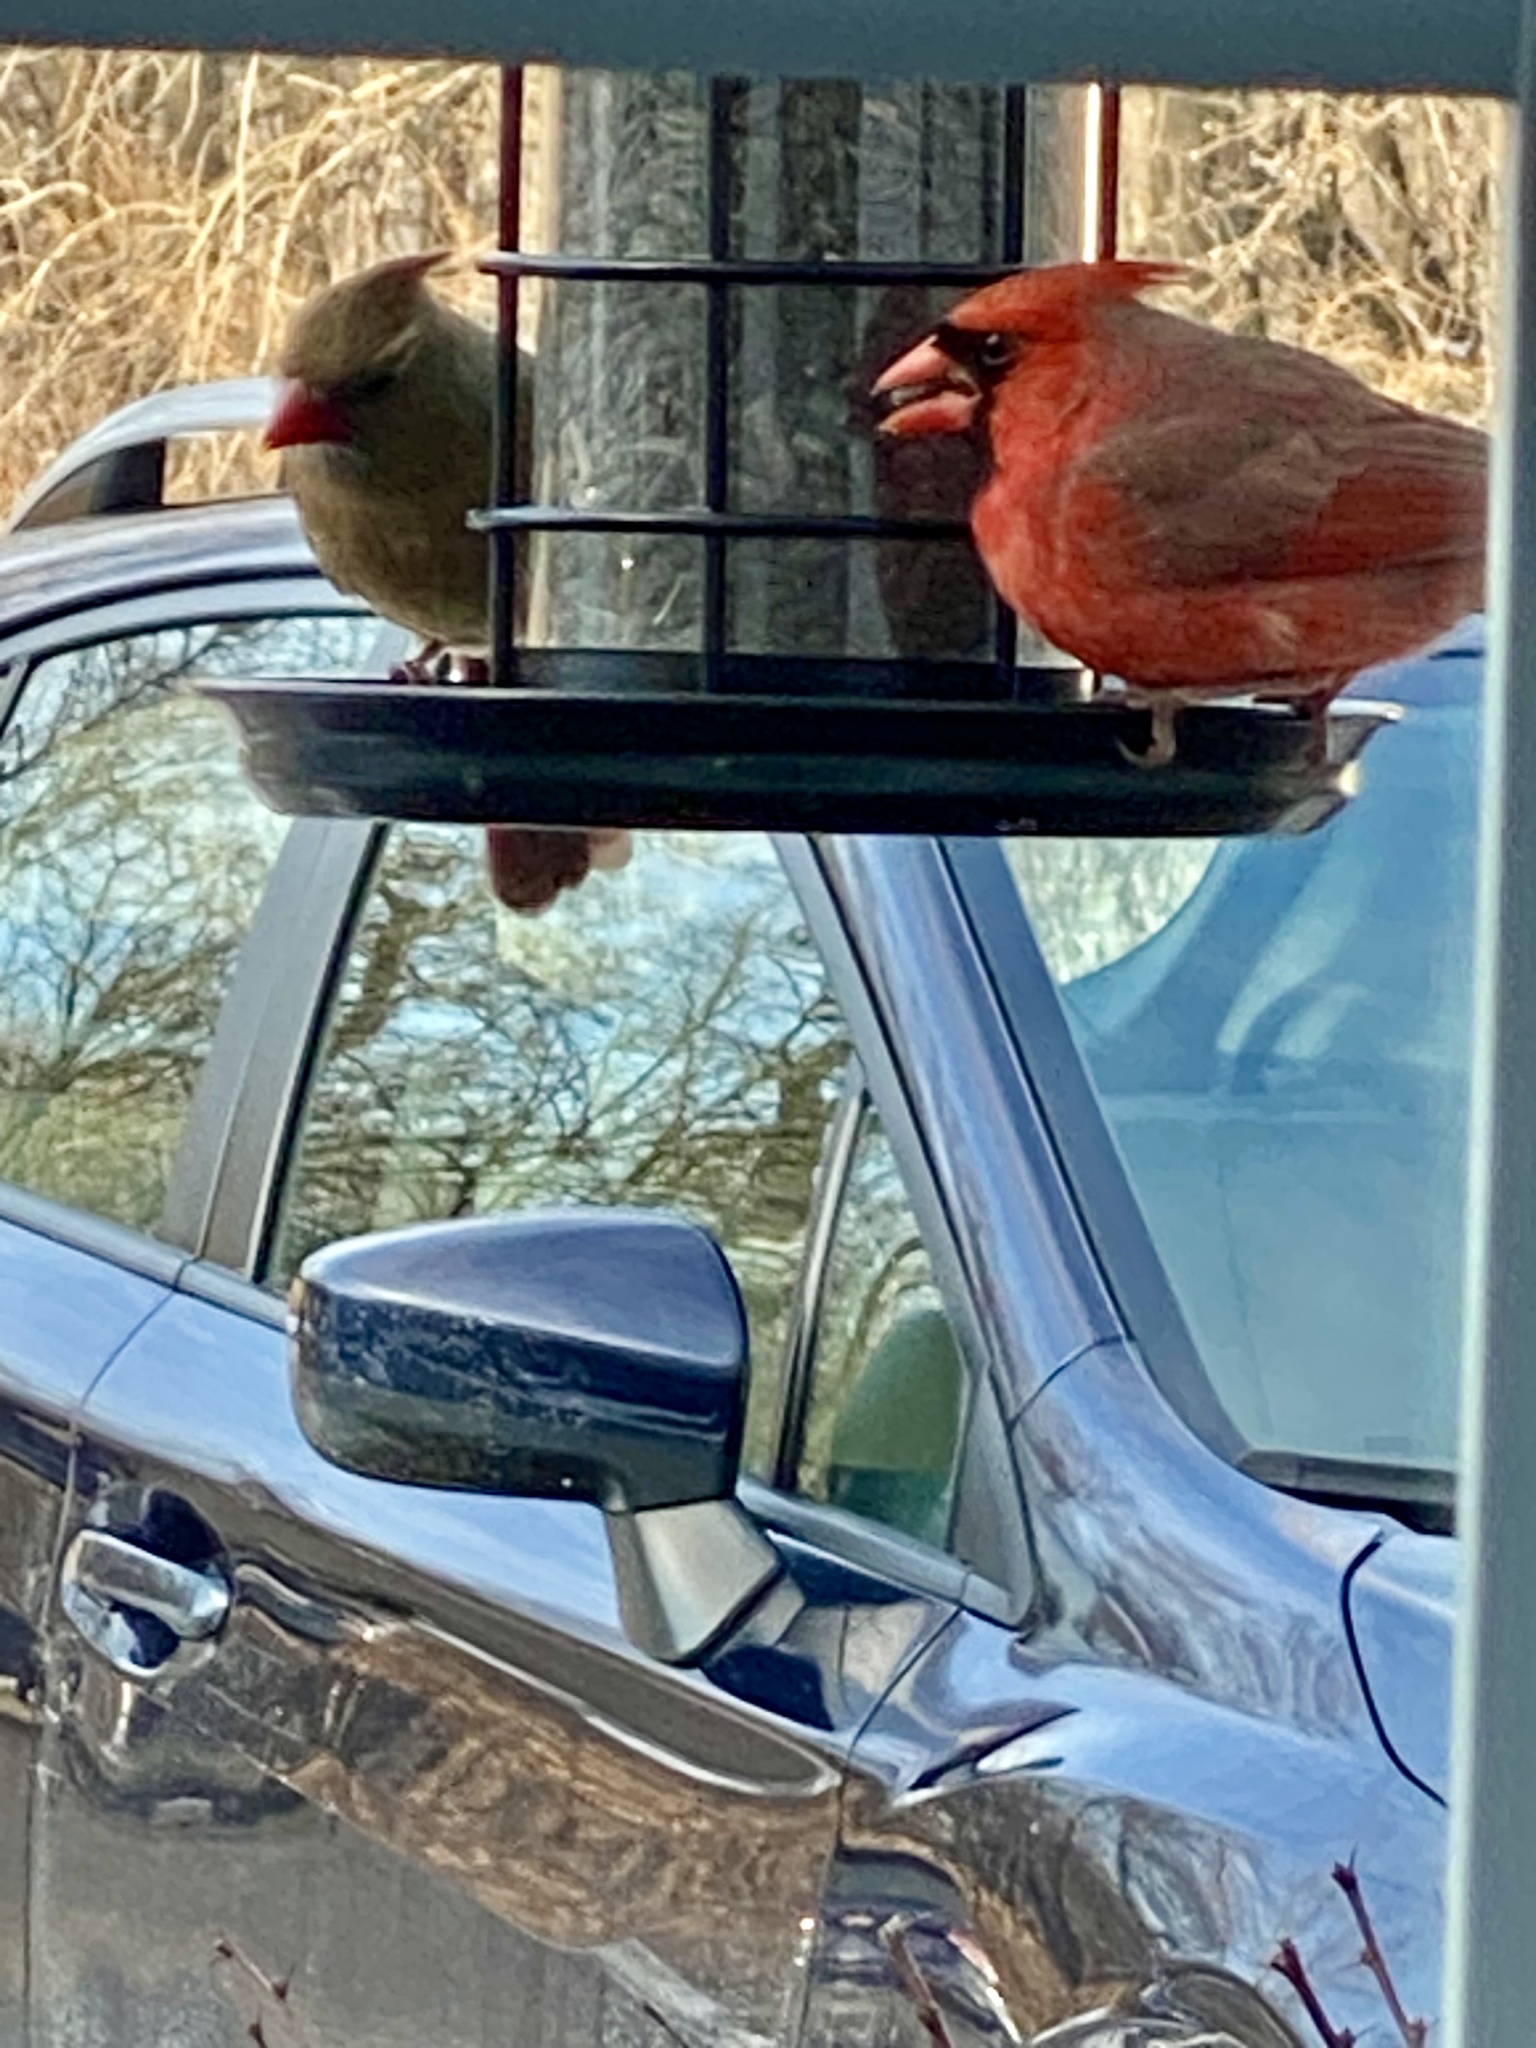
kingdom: Animalia
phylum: Chordata
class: Aves
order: Passeriformes
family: Cardinalidae
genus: Cardinalis
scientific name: Cardinalis cardinalis
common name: Northern cardinal
